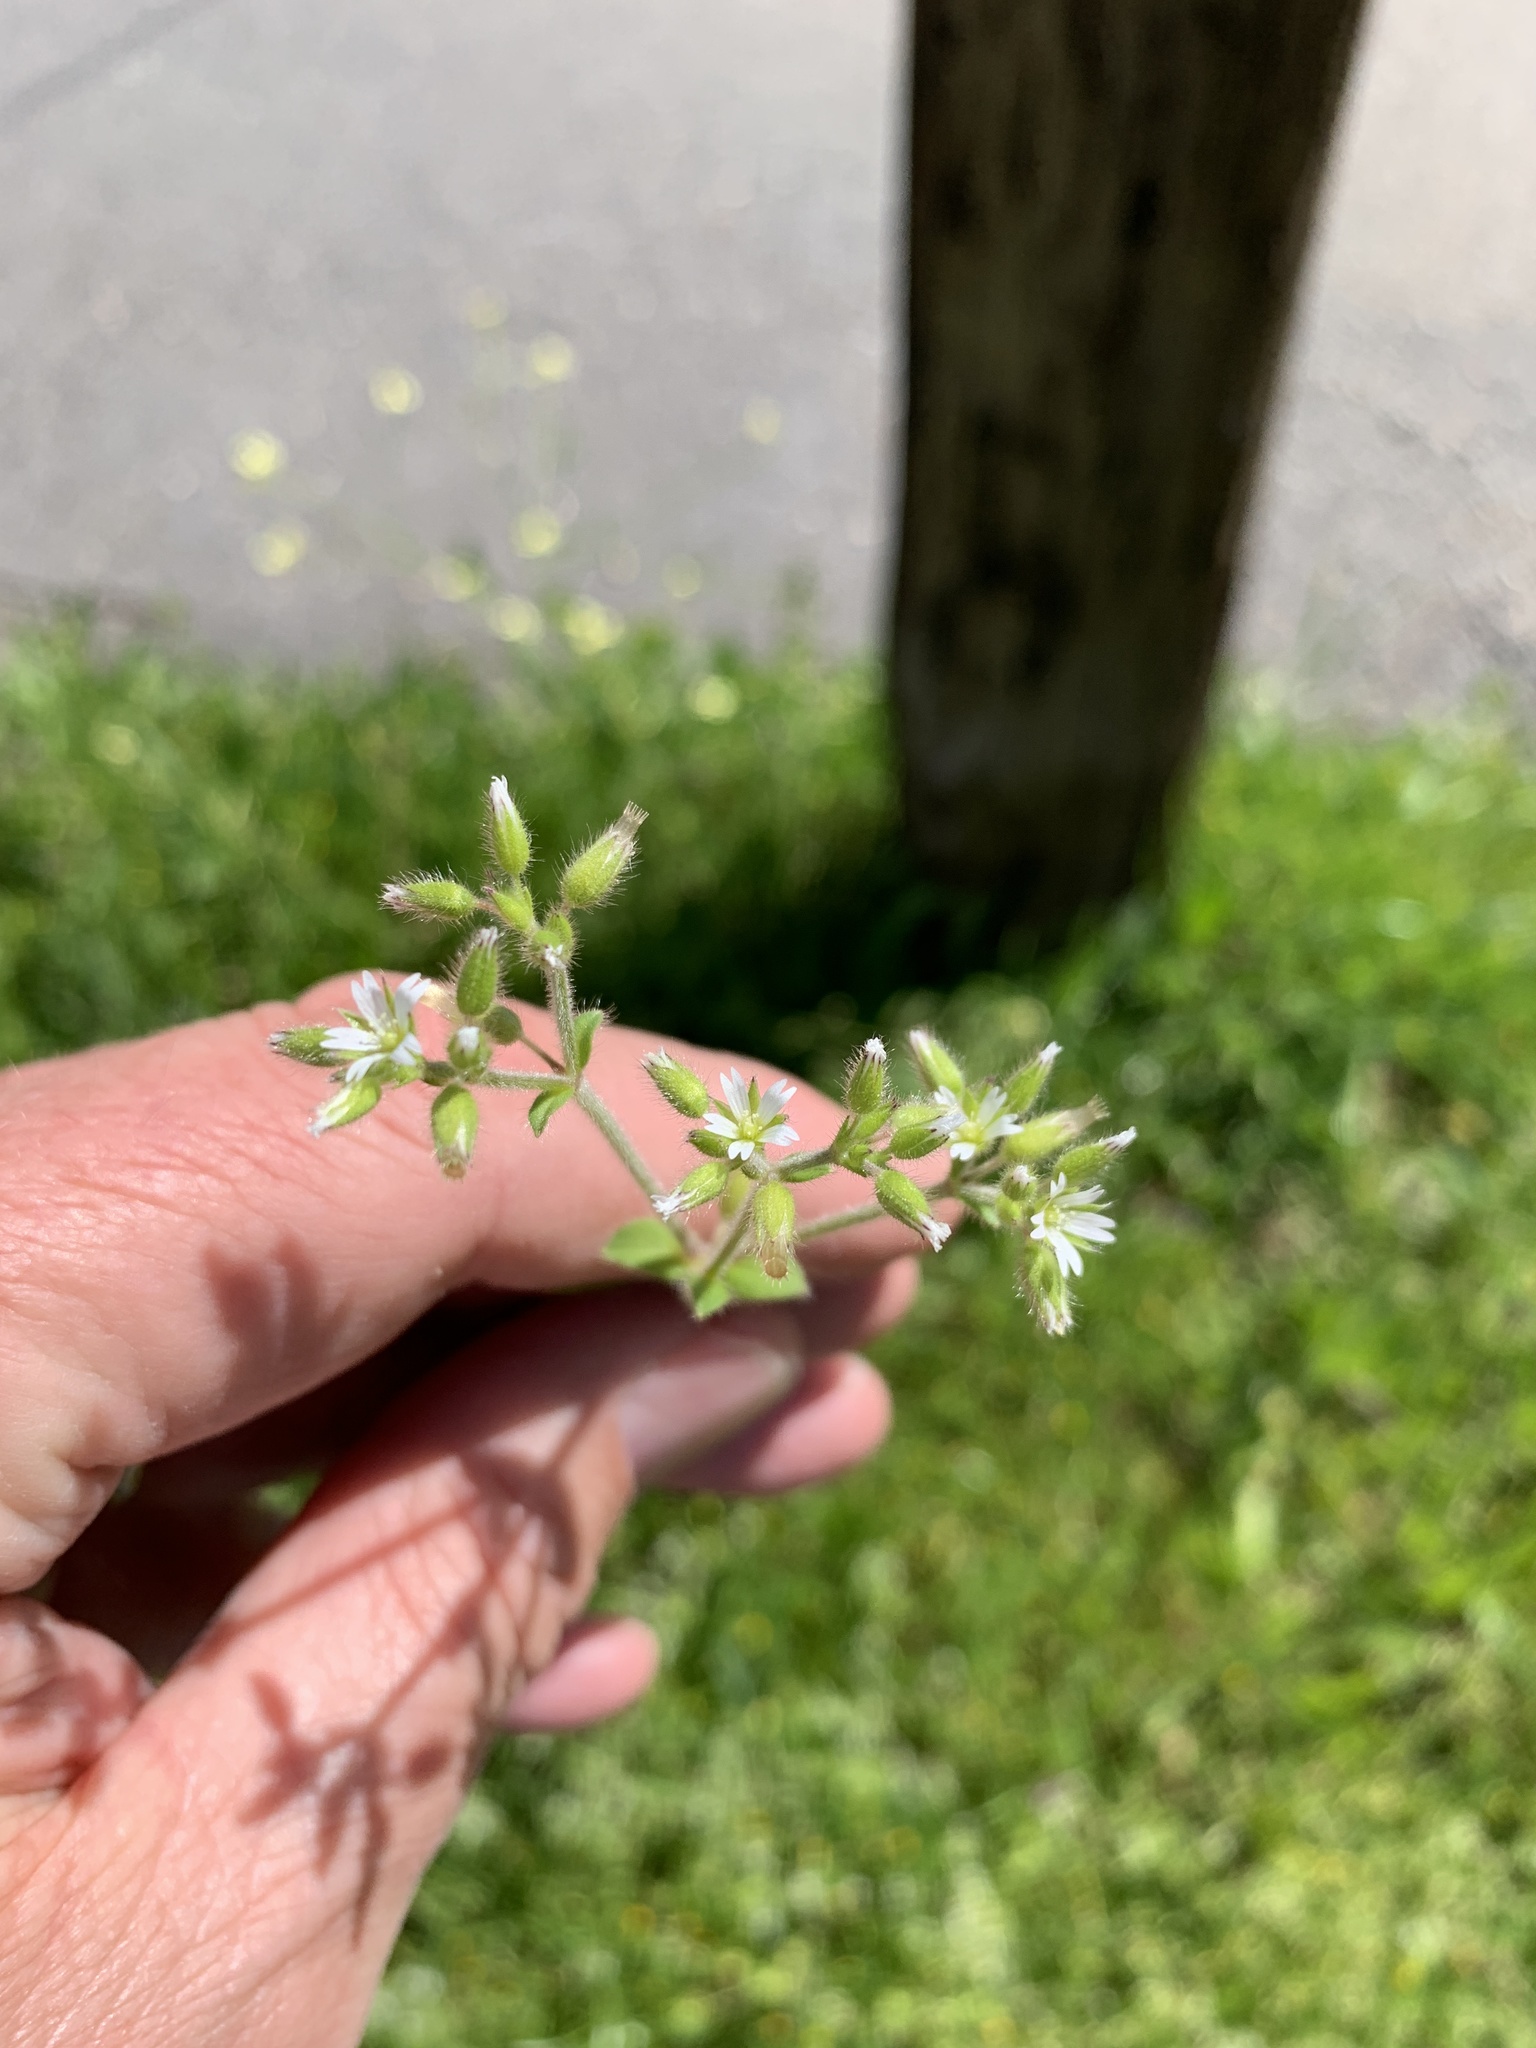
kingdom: Plantae
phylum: Tracheophyta
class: Magnoliopsida
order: Caryophyllales
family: Caryophyllaceae
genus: Cerastium
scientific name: Cerastium glomeratum
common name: Sticky chickweed
